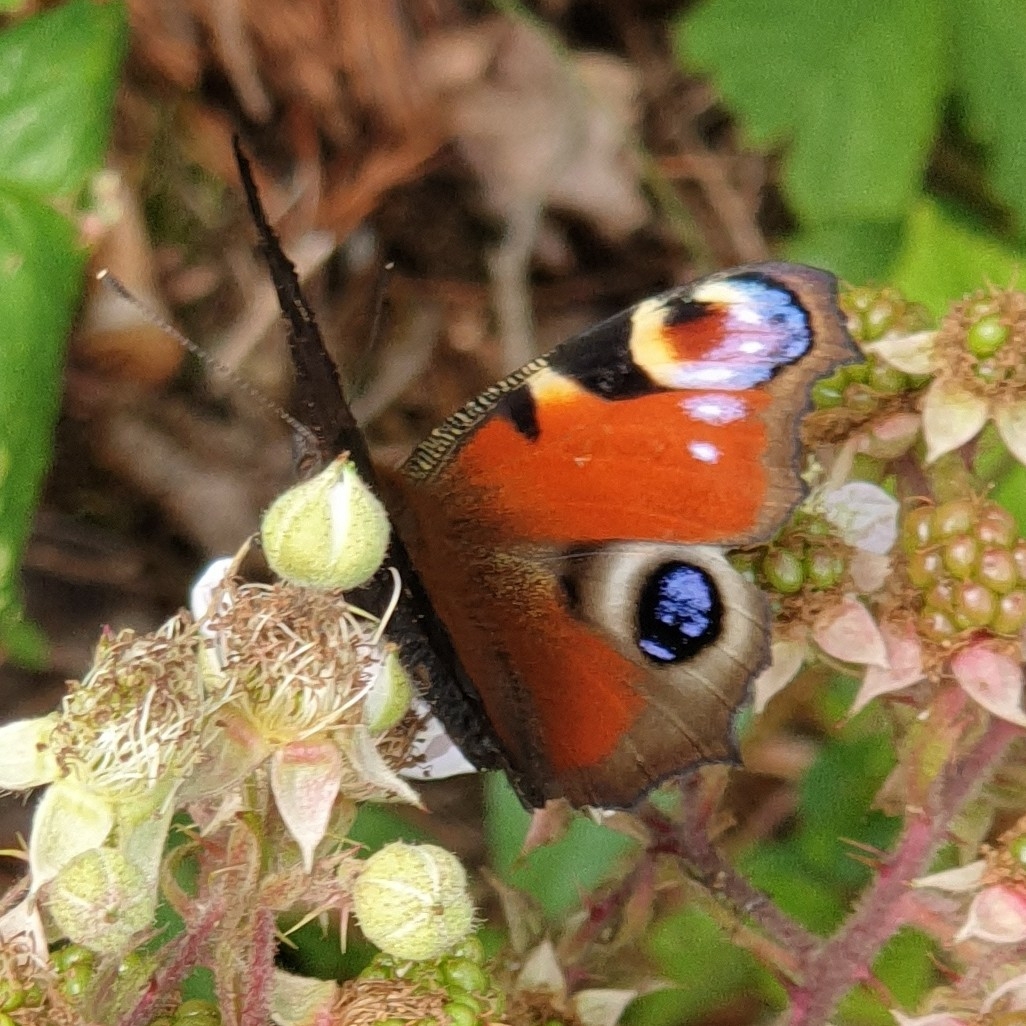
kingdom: Animalia
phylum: Arthropoda
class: Insecta
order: Lepidoptera
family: Nymphalidae
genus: Aglais
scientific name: Aglais io
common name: Peacock
